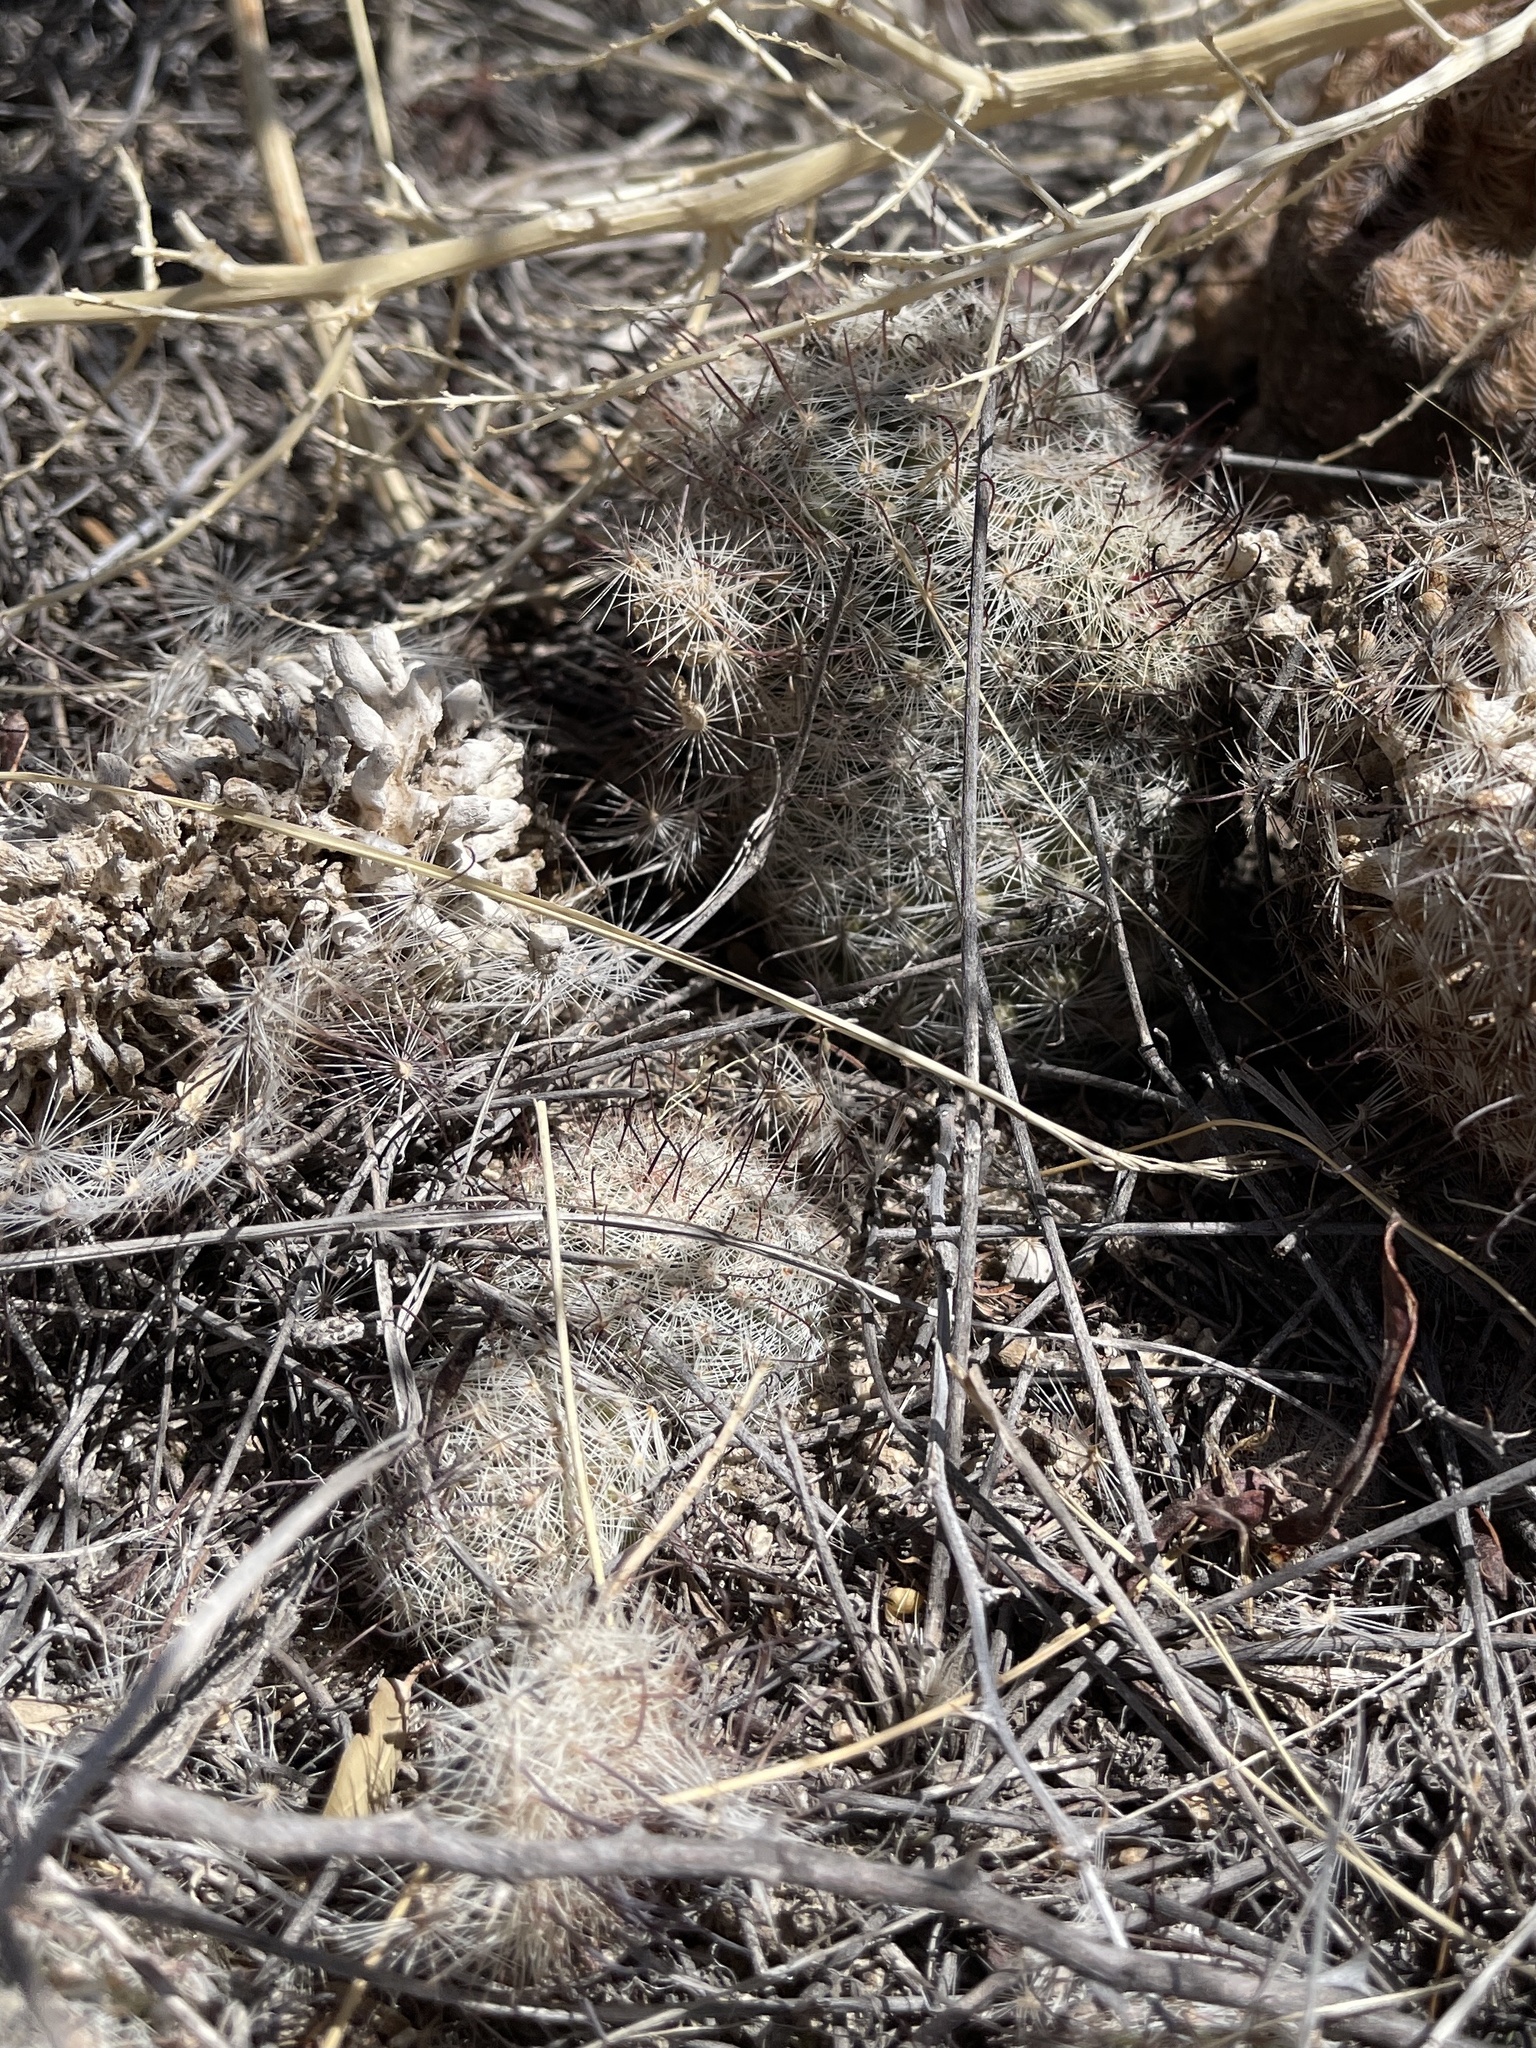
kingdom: Plantae
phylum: Tracheophyta
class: Magnoliopsida
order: Caryophyllales
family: Cactaceae
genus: Cochemiea
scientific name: Cochemiea grahamii
